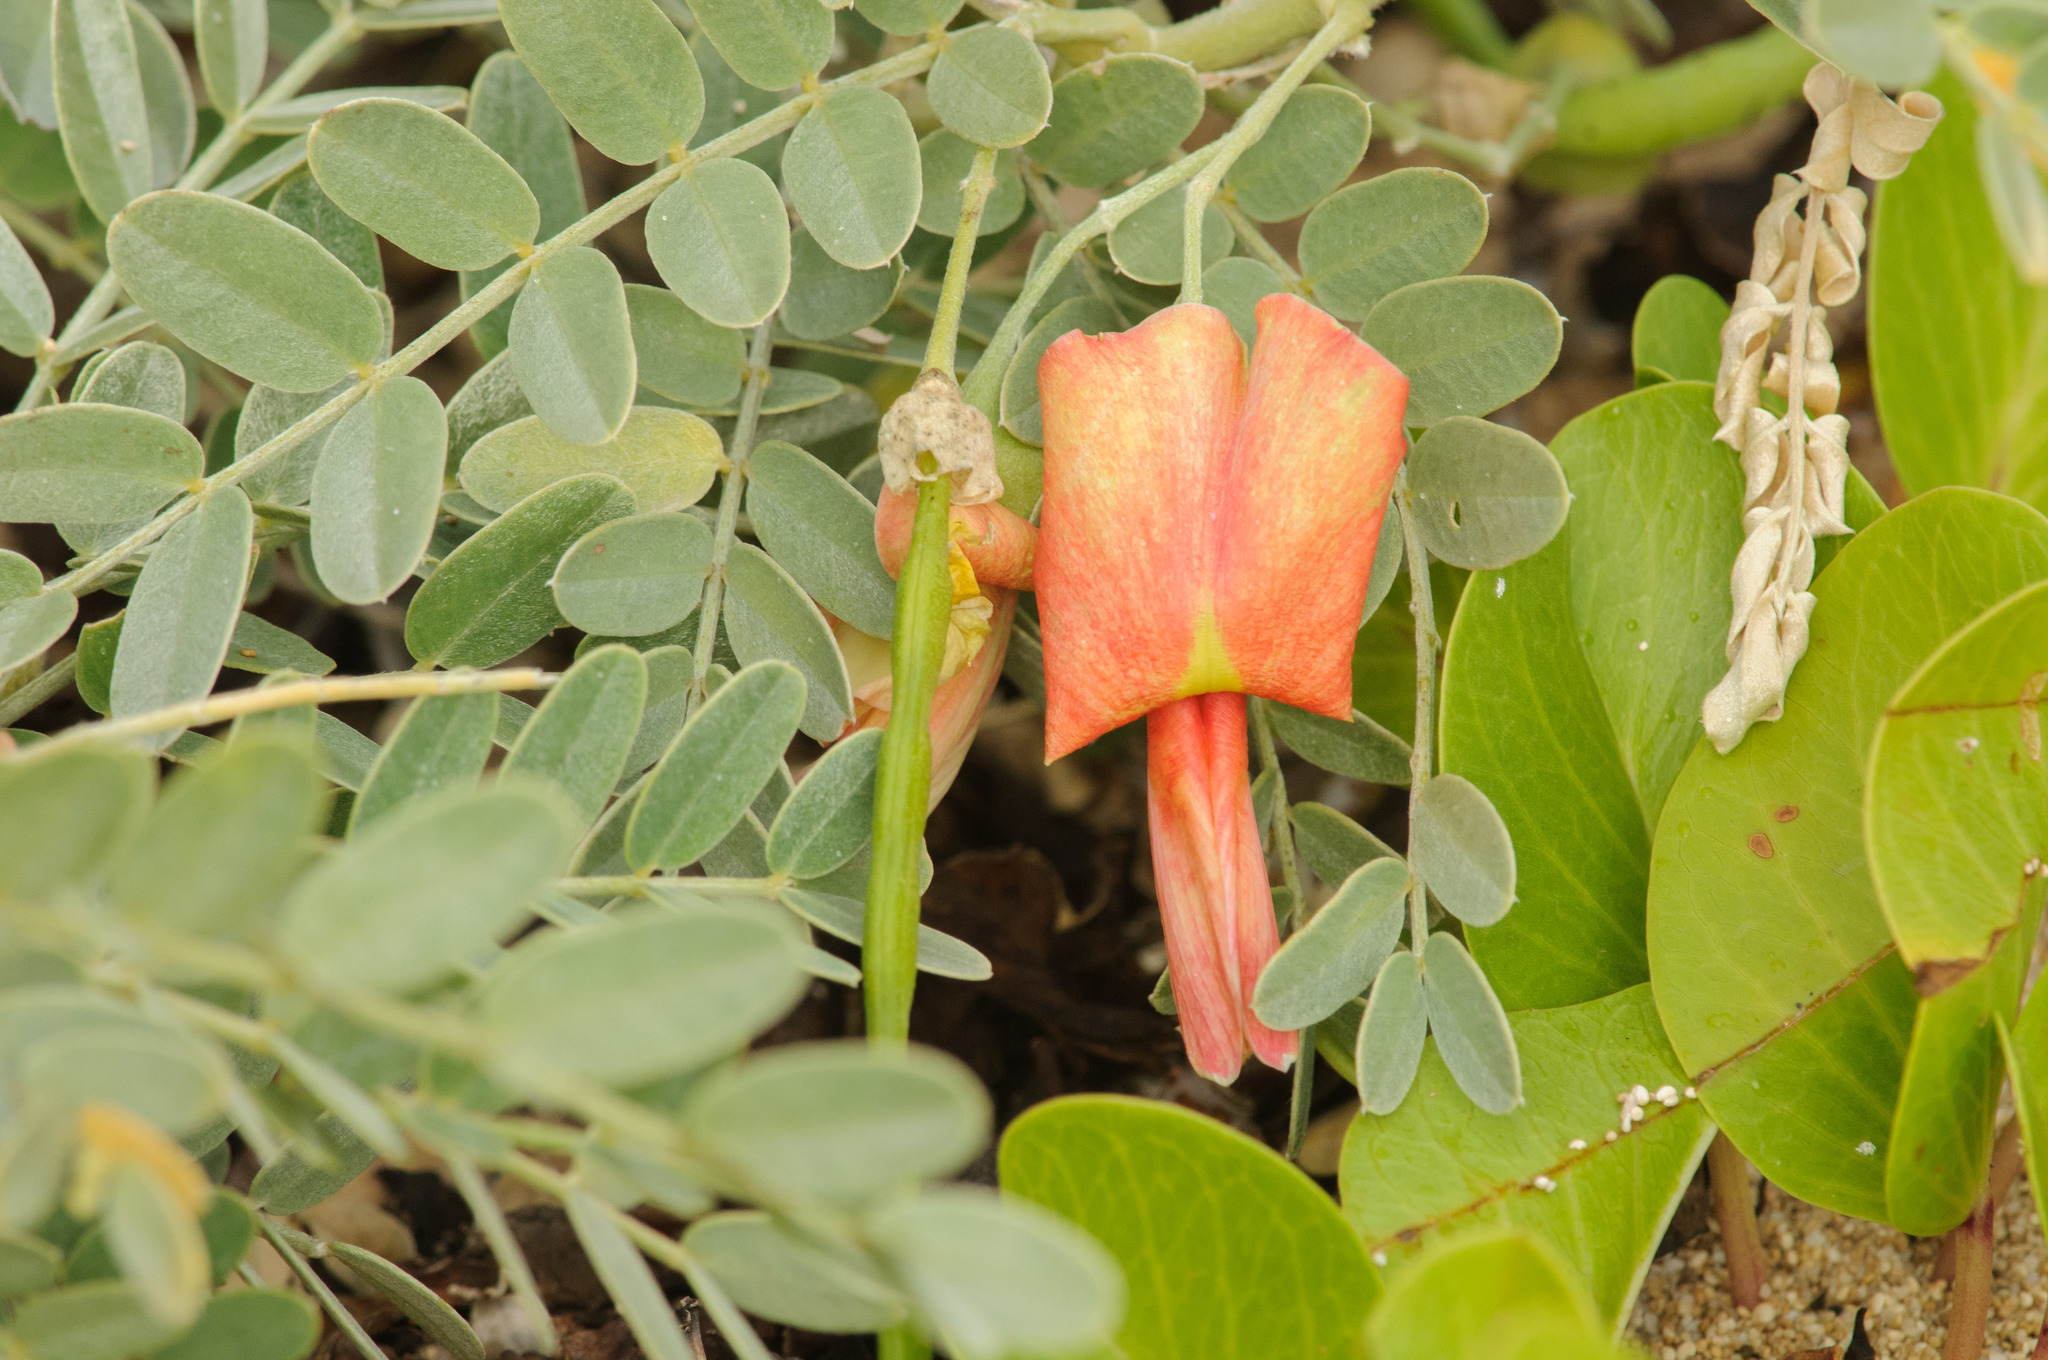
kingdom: Plantae
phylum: Tracheophyta
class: Magnoliopsida
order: Fabales
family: Fabaceae
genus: Sesbania
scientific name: Sesbania tomentosa
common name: `ohai
